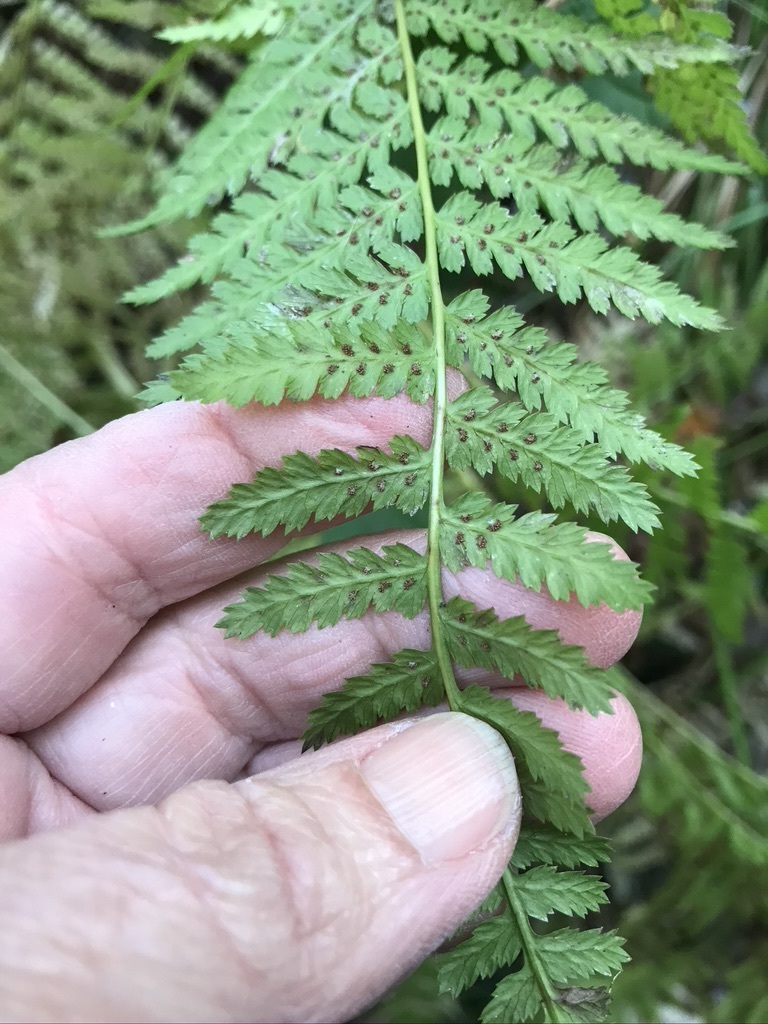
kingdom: Plantae
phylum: Tracheophyta
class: Polypodiopsida
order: Polypodiales
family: Athyriaceae
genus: Athyrium
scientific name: Athyrium cyclosorum
